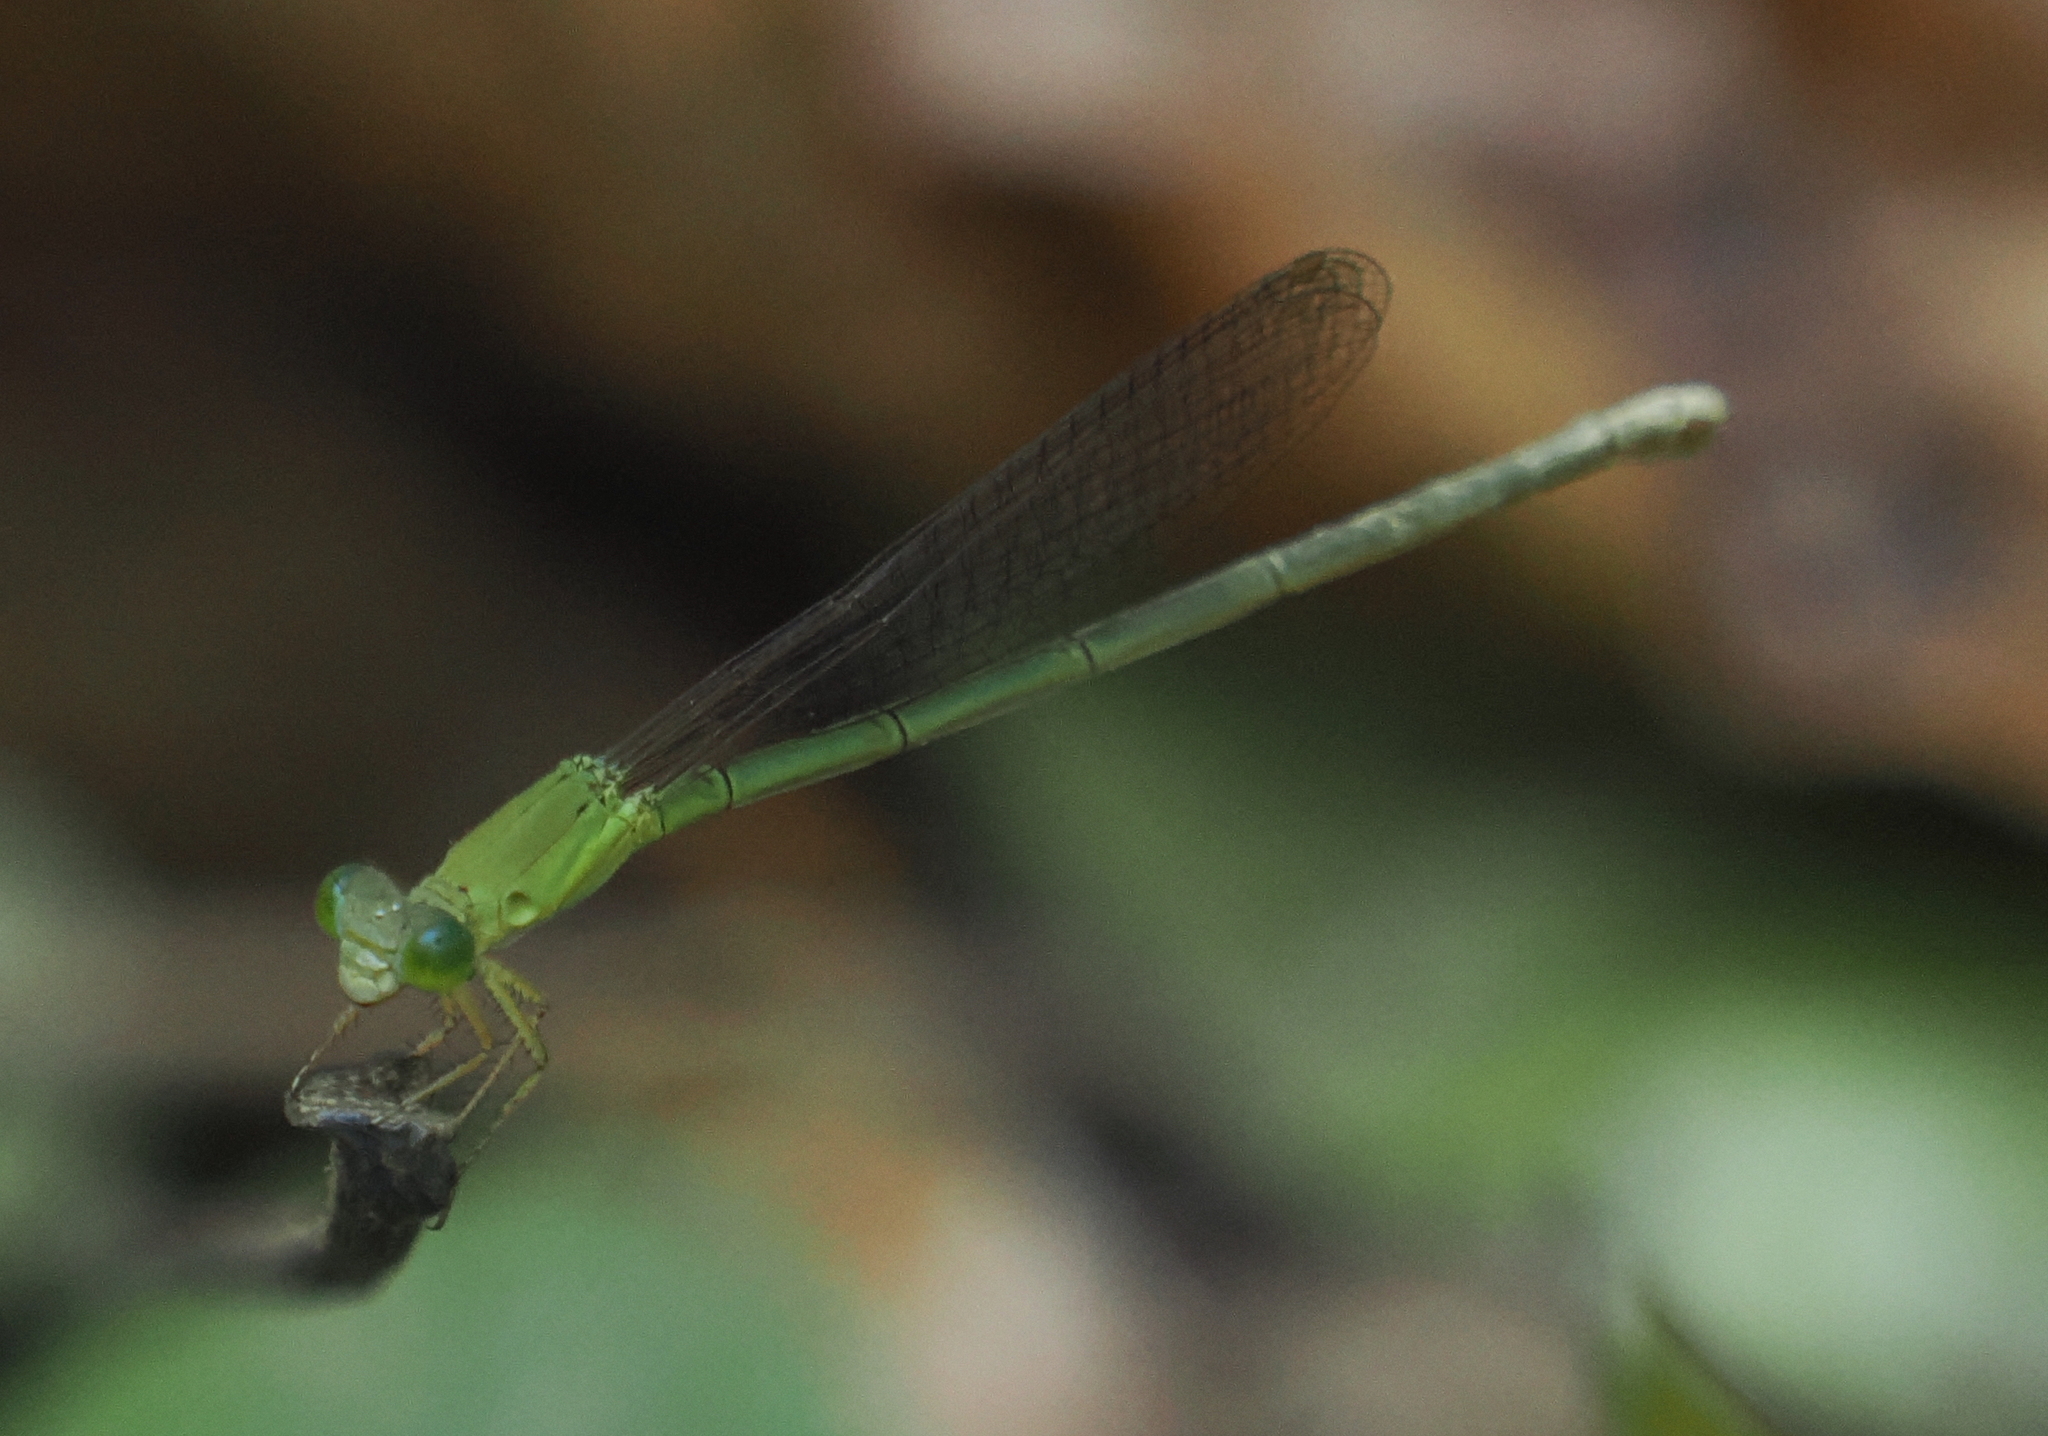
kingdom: Animalia
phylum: Arthropoda
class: Insecta
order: Odonata
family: Coenagrionidae
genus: Ceriagrion
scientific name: Ceriagrion azureum
